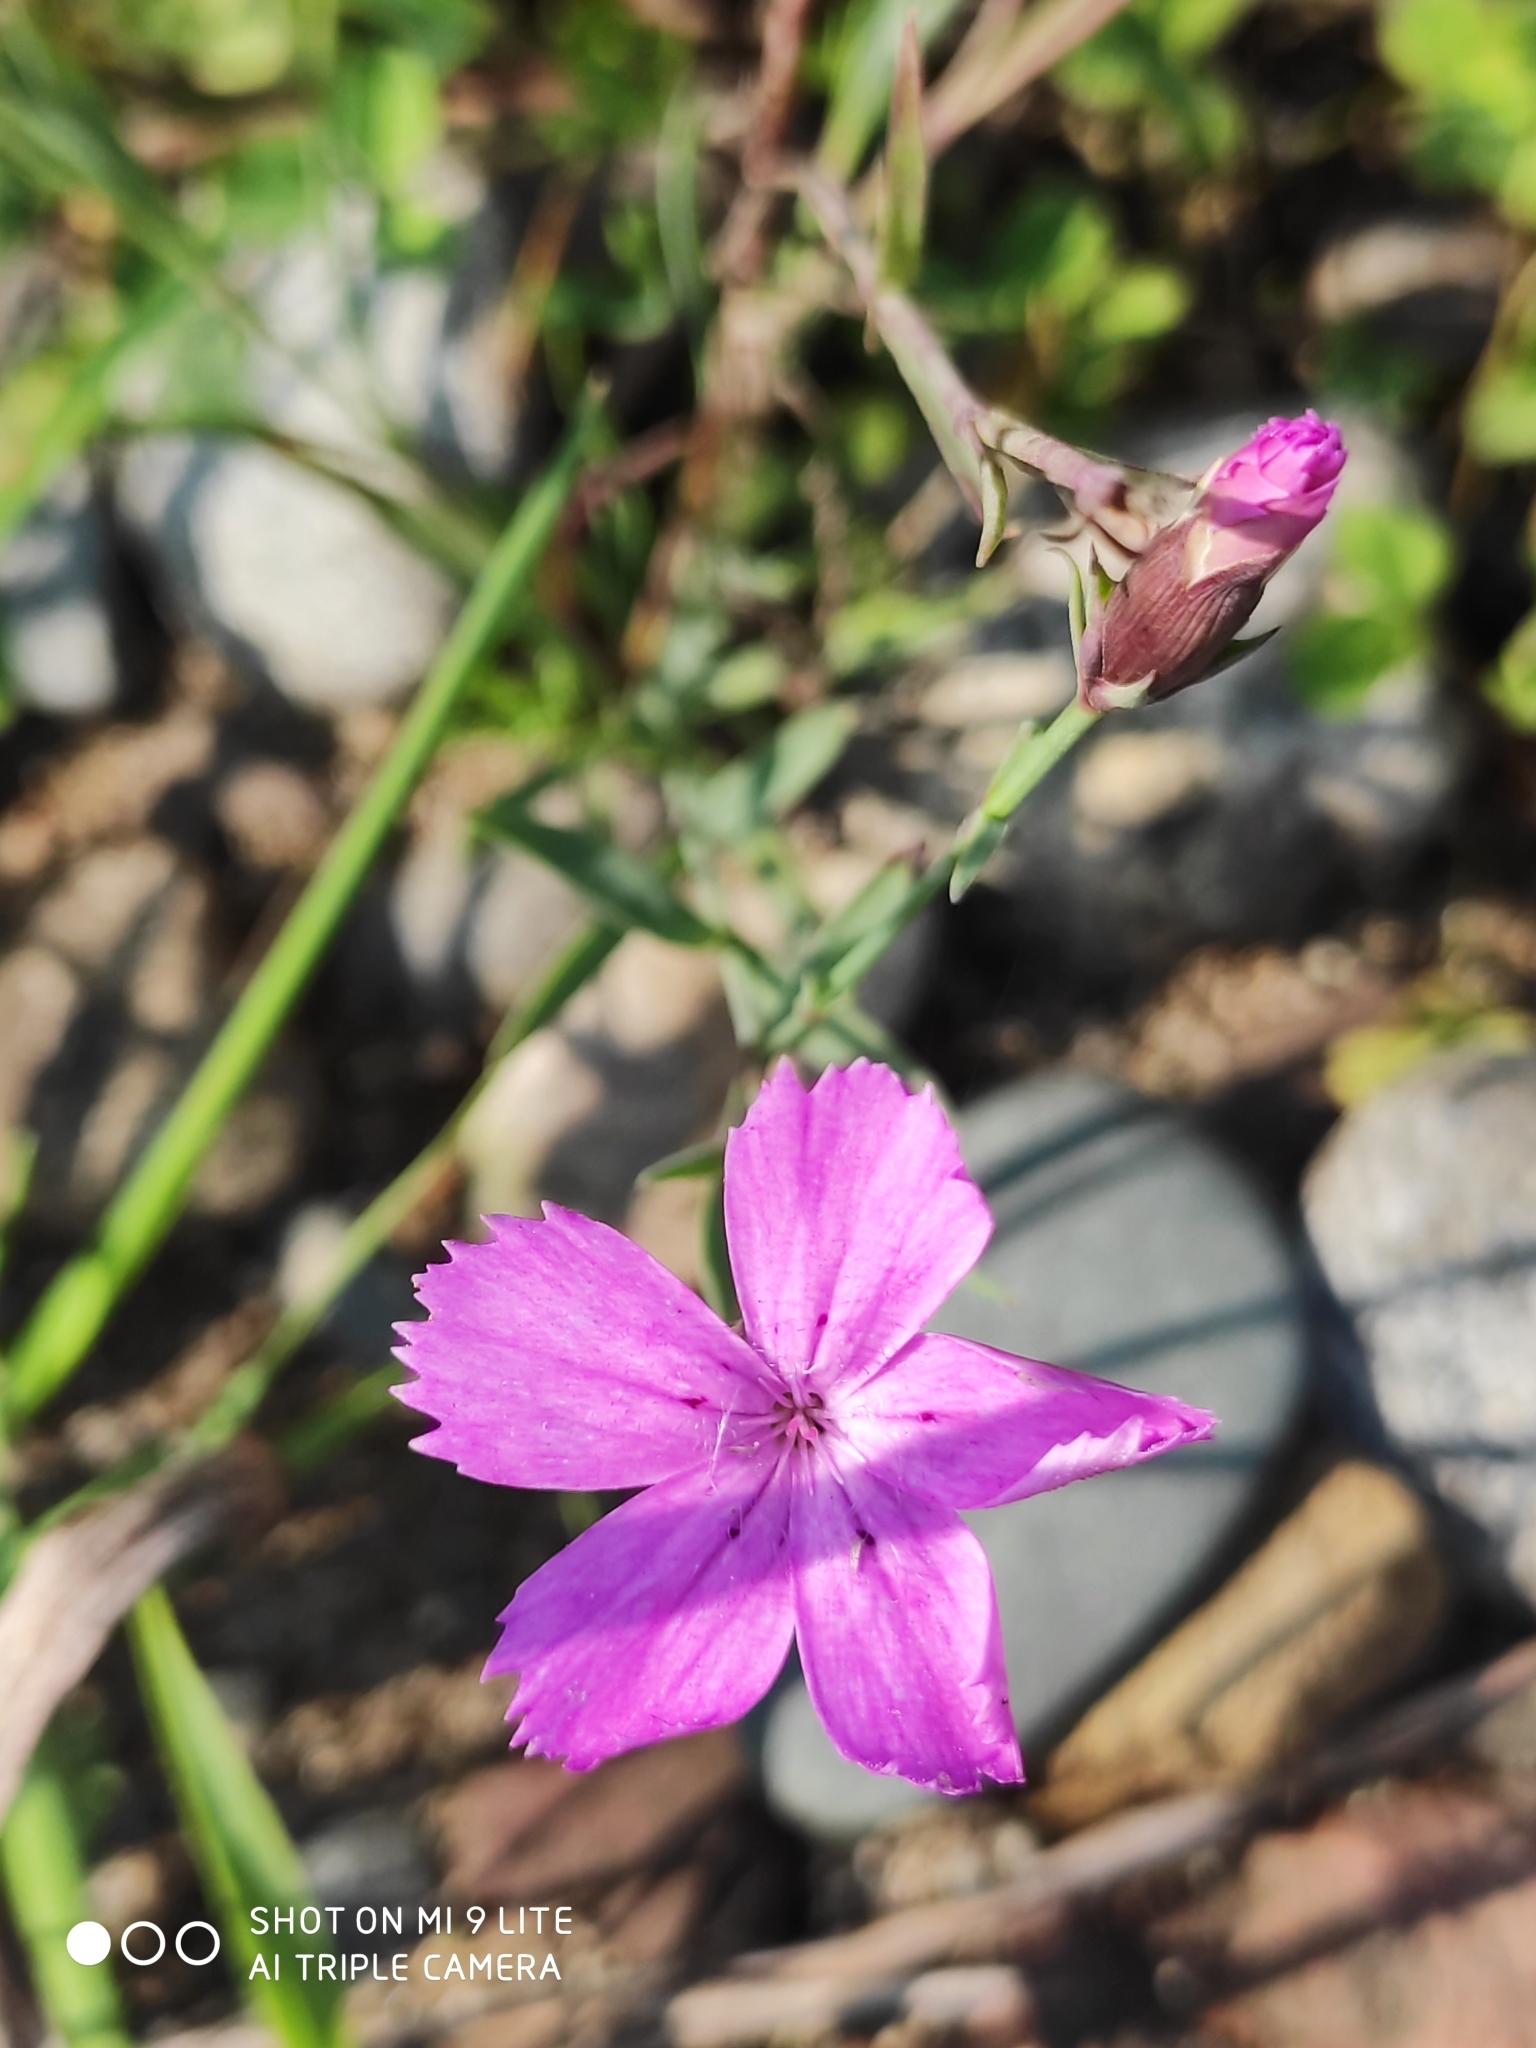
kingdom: Plantae
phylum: Tracheophyta
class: Magnoliopsida
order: Caryophyllales
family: Caryophyllaceae
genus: Dianthus
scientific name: Dianthus chinensis
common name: Rainbow pink
